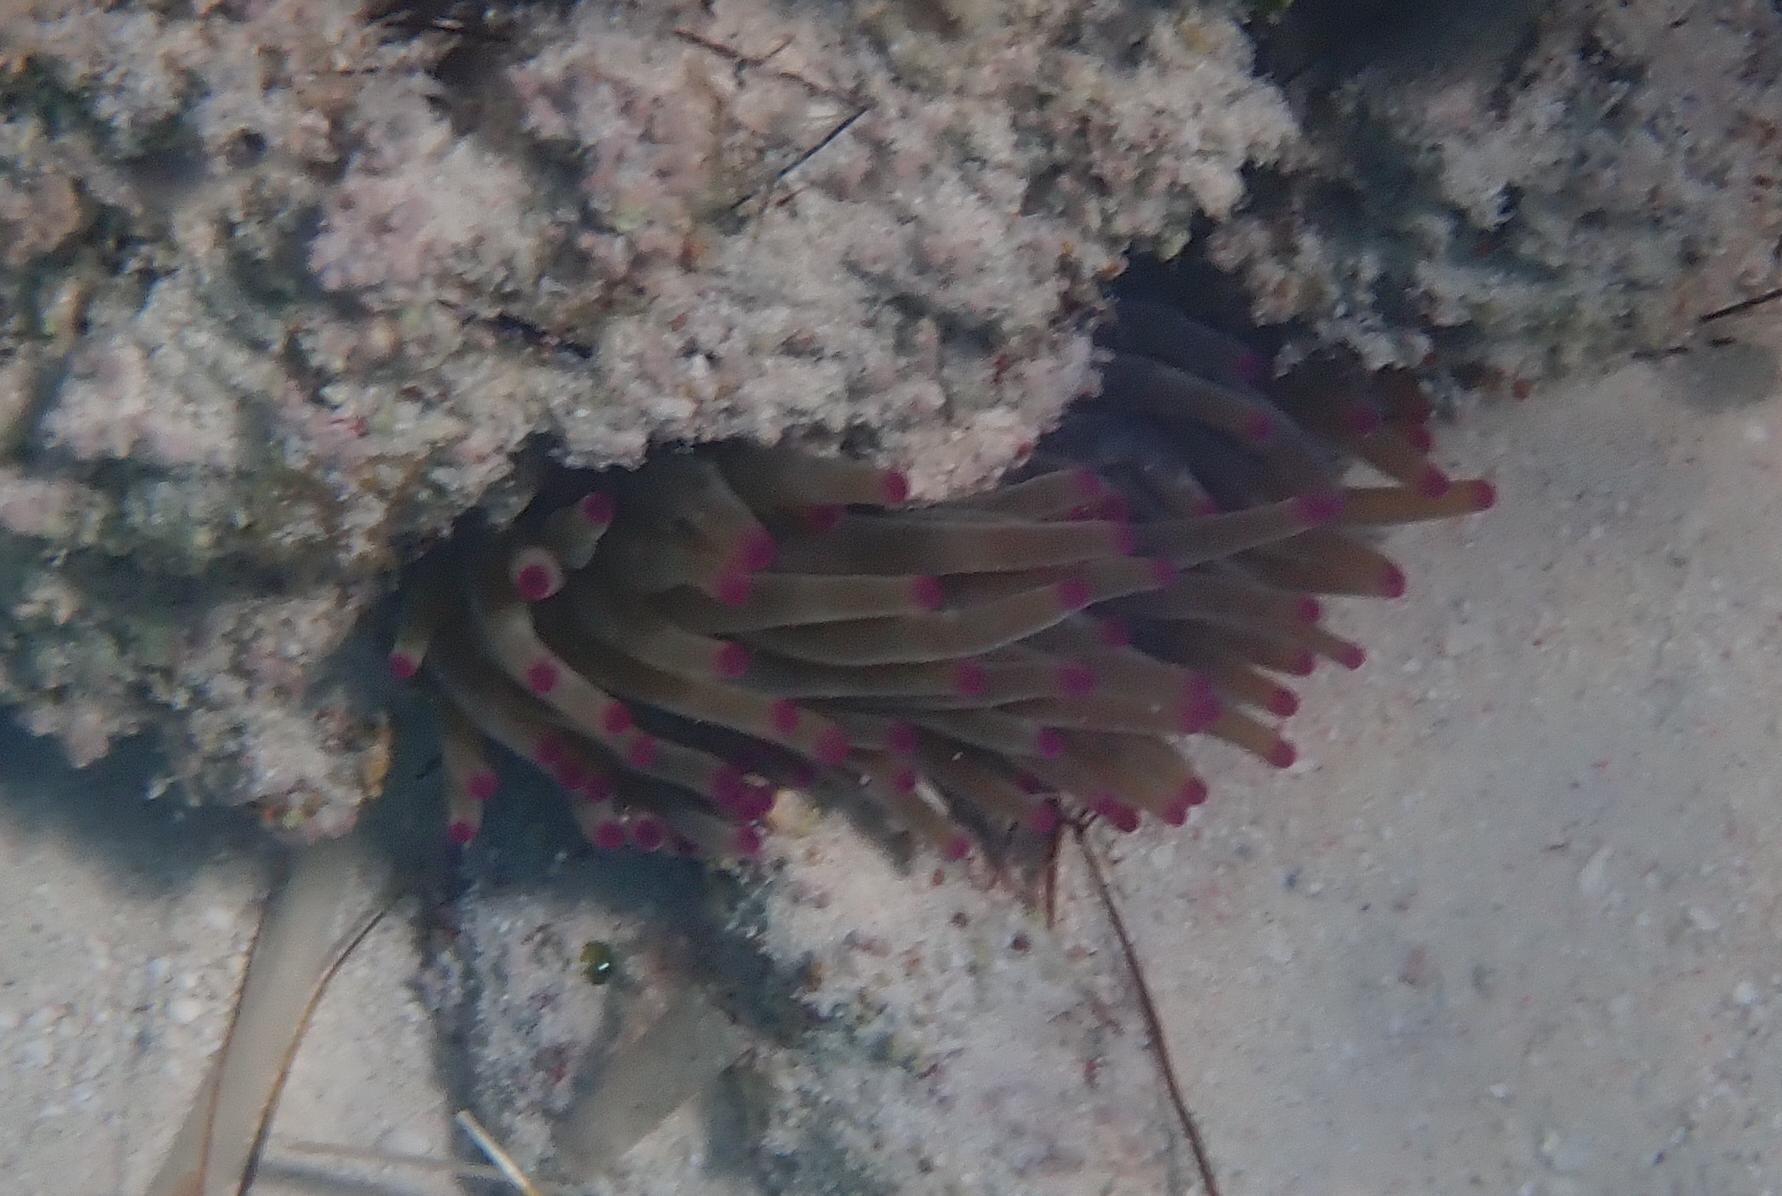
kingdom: Animalia
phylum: Cnidaria
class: Anthozoa
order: Actiniaria
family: Actiniidae
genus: Condylactis
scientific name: Condylactis gigantea
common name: Giant caribbean anemone
